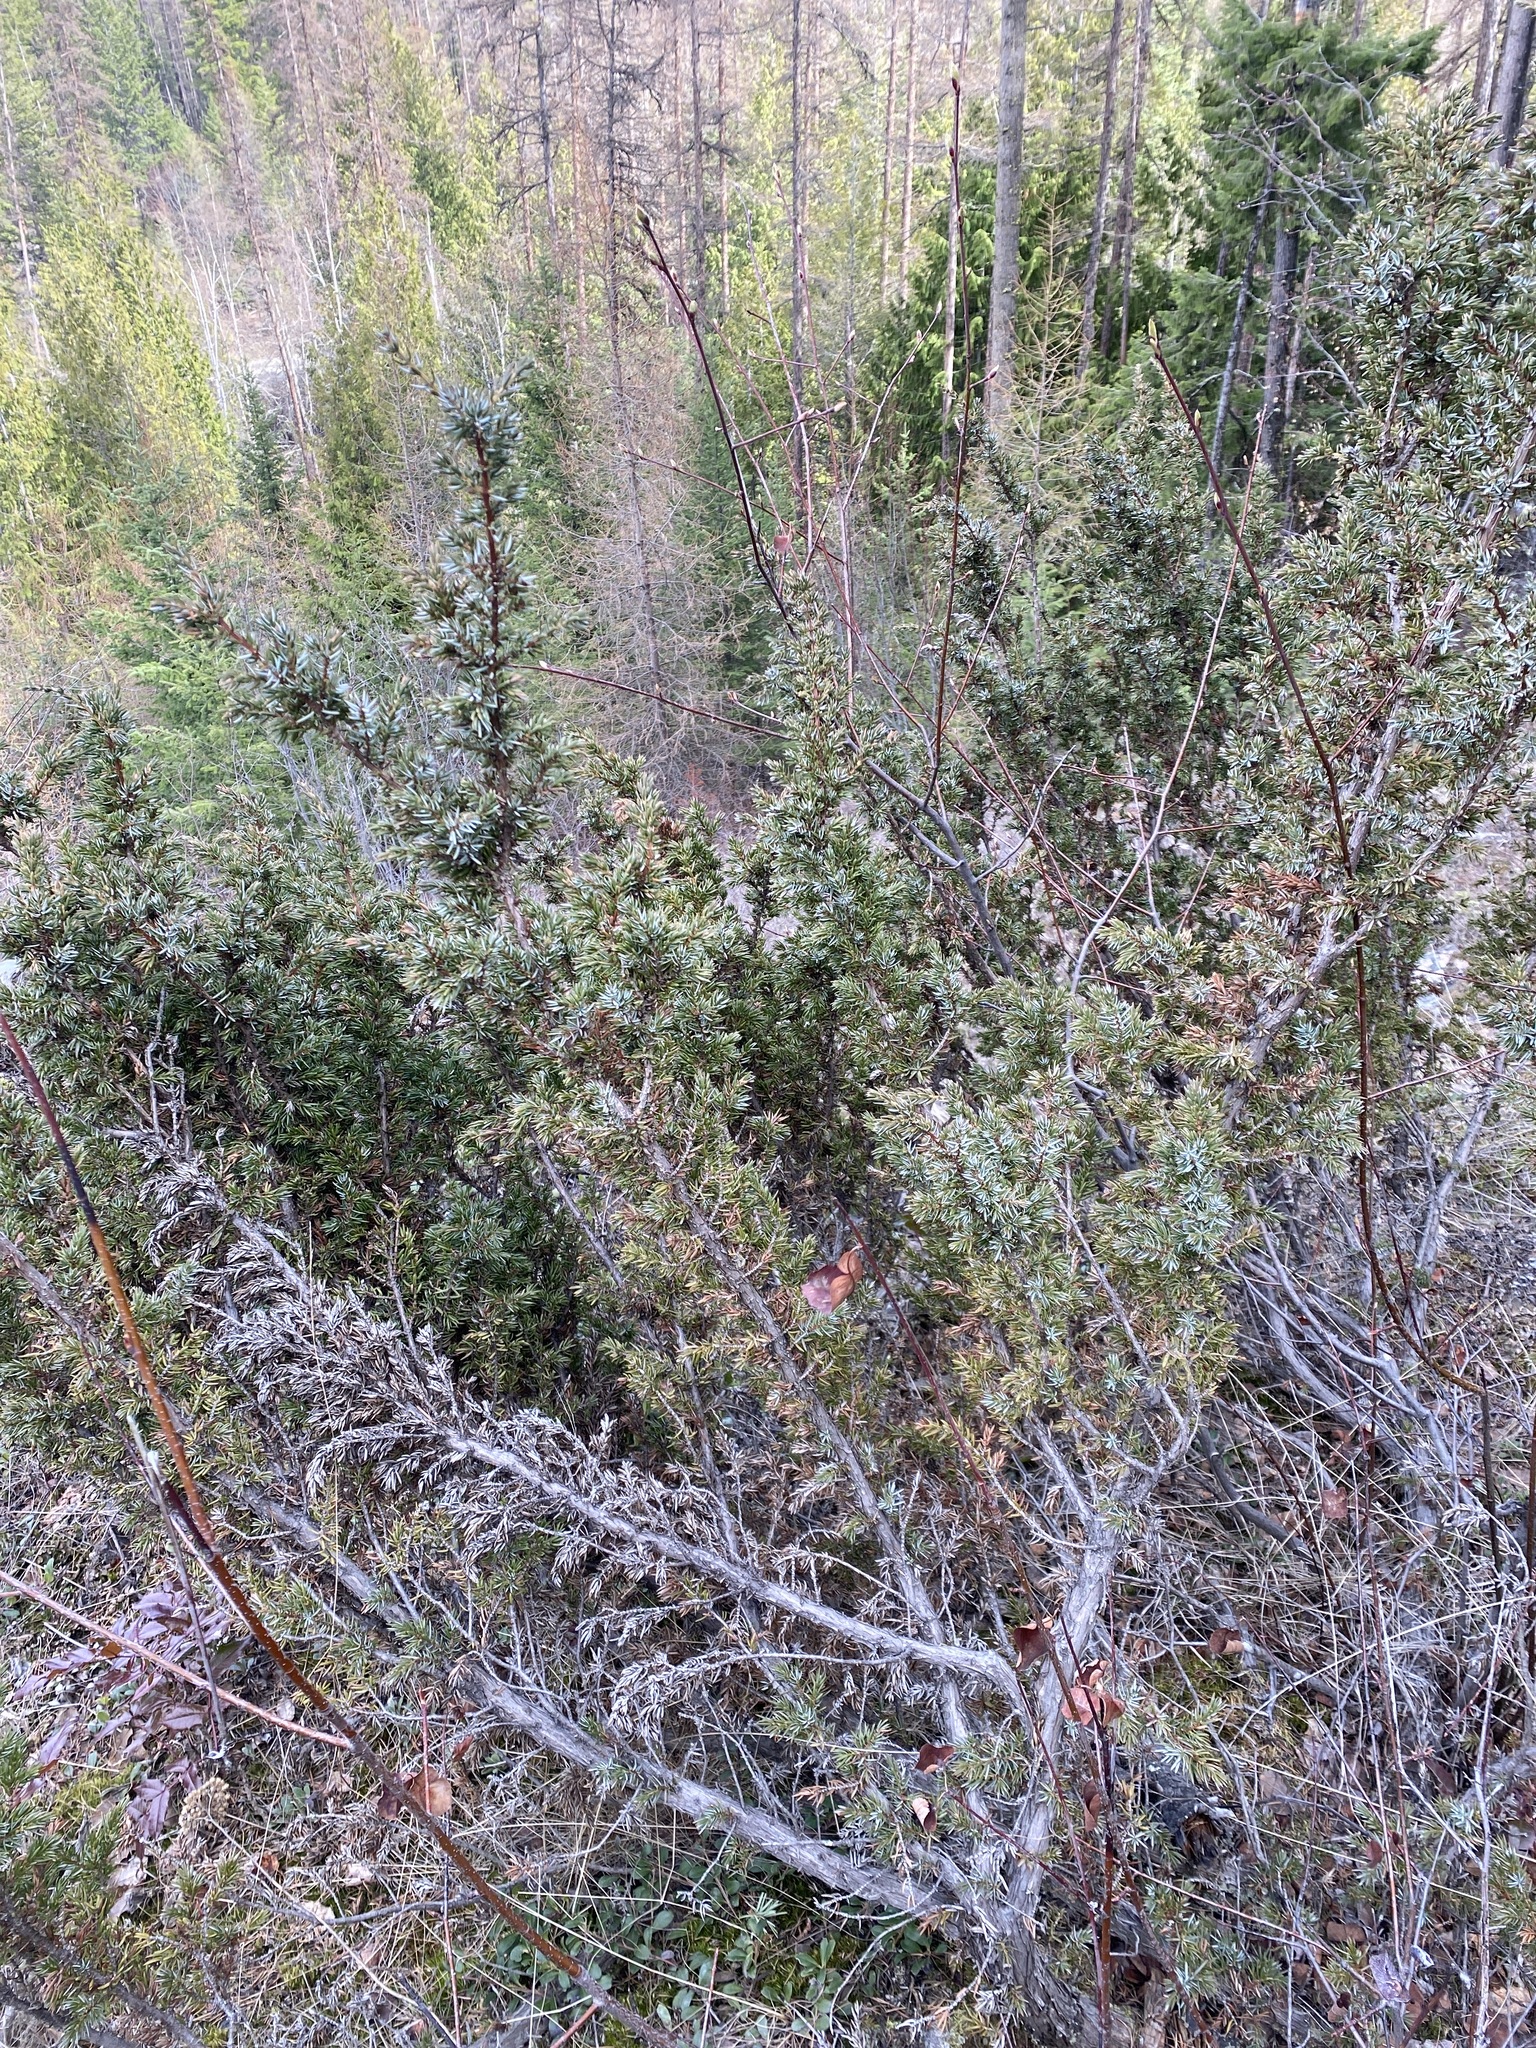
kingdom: Plantae
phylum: Tracheophyta
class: Pinopsida
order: Pinales
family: Cupressaceae
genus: Juniperus
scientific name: Juniperus communis
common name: Common juniper
